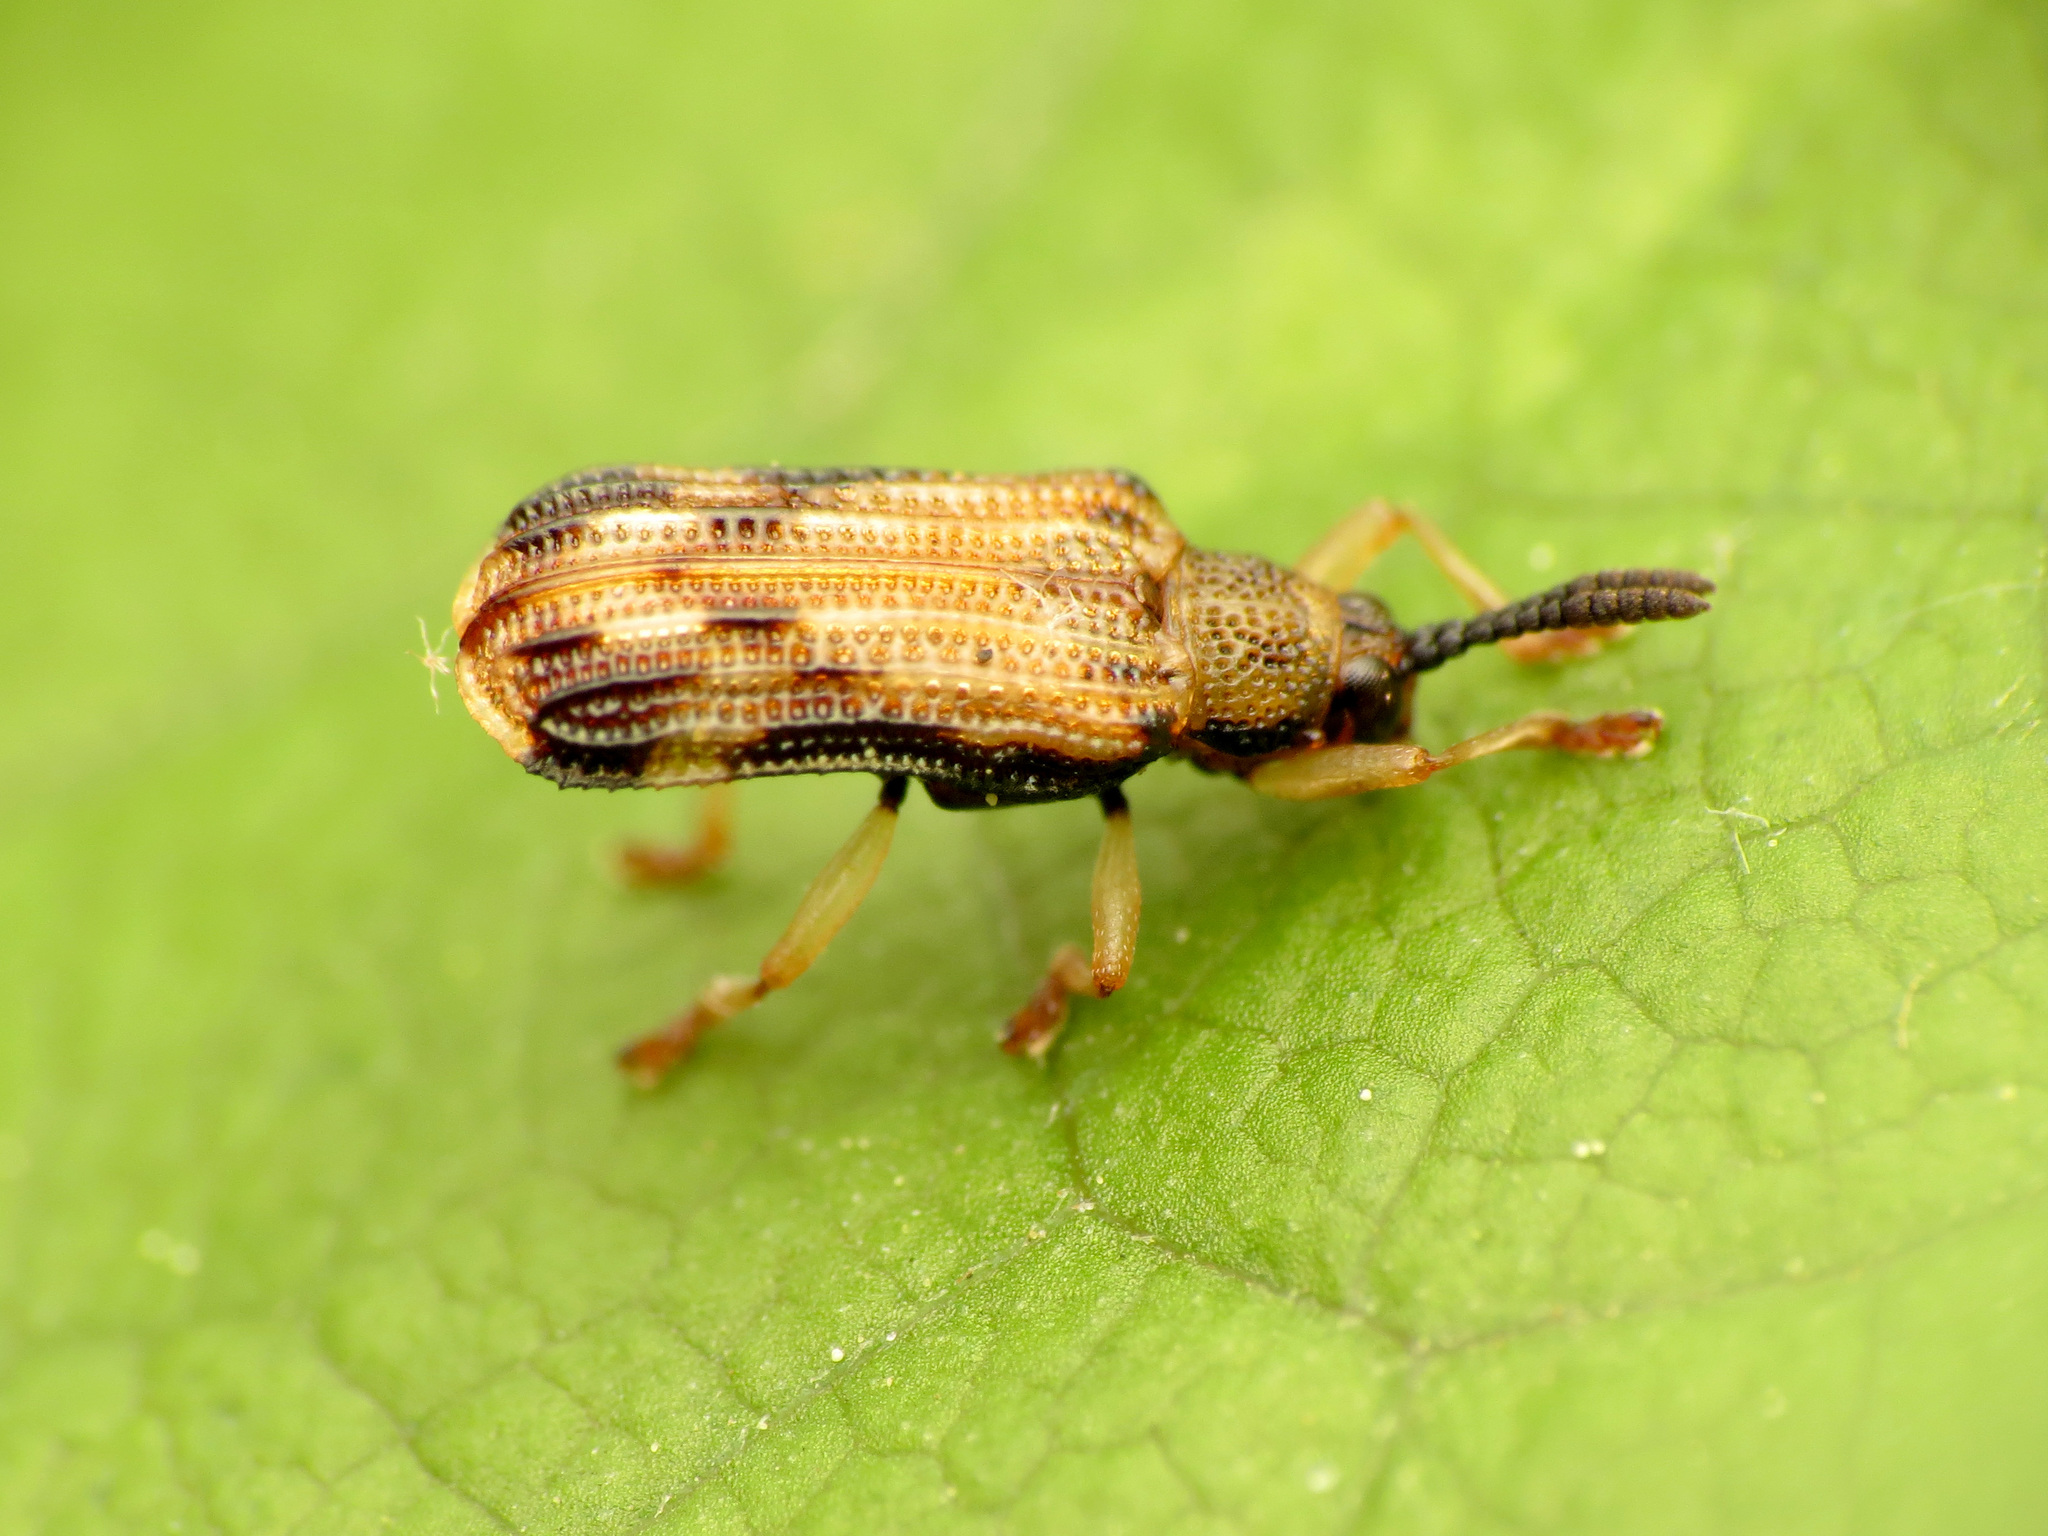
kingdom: Animalia
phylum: Arthropoda
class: Insecta
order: Coleoptera
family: Chrysomelidae
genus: Sumitrosis
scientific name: Sumitrosis inaequalis
